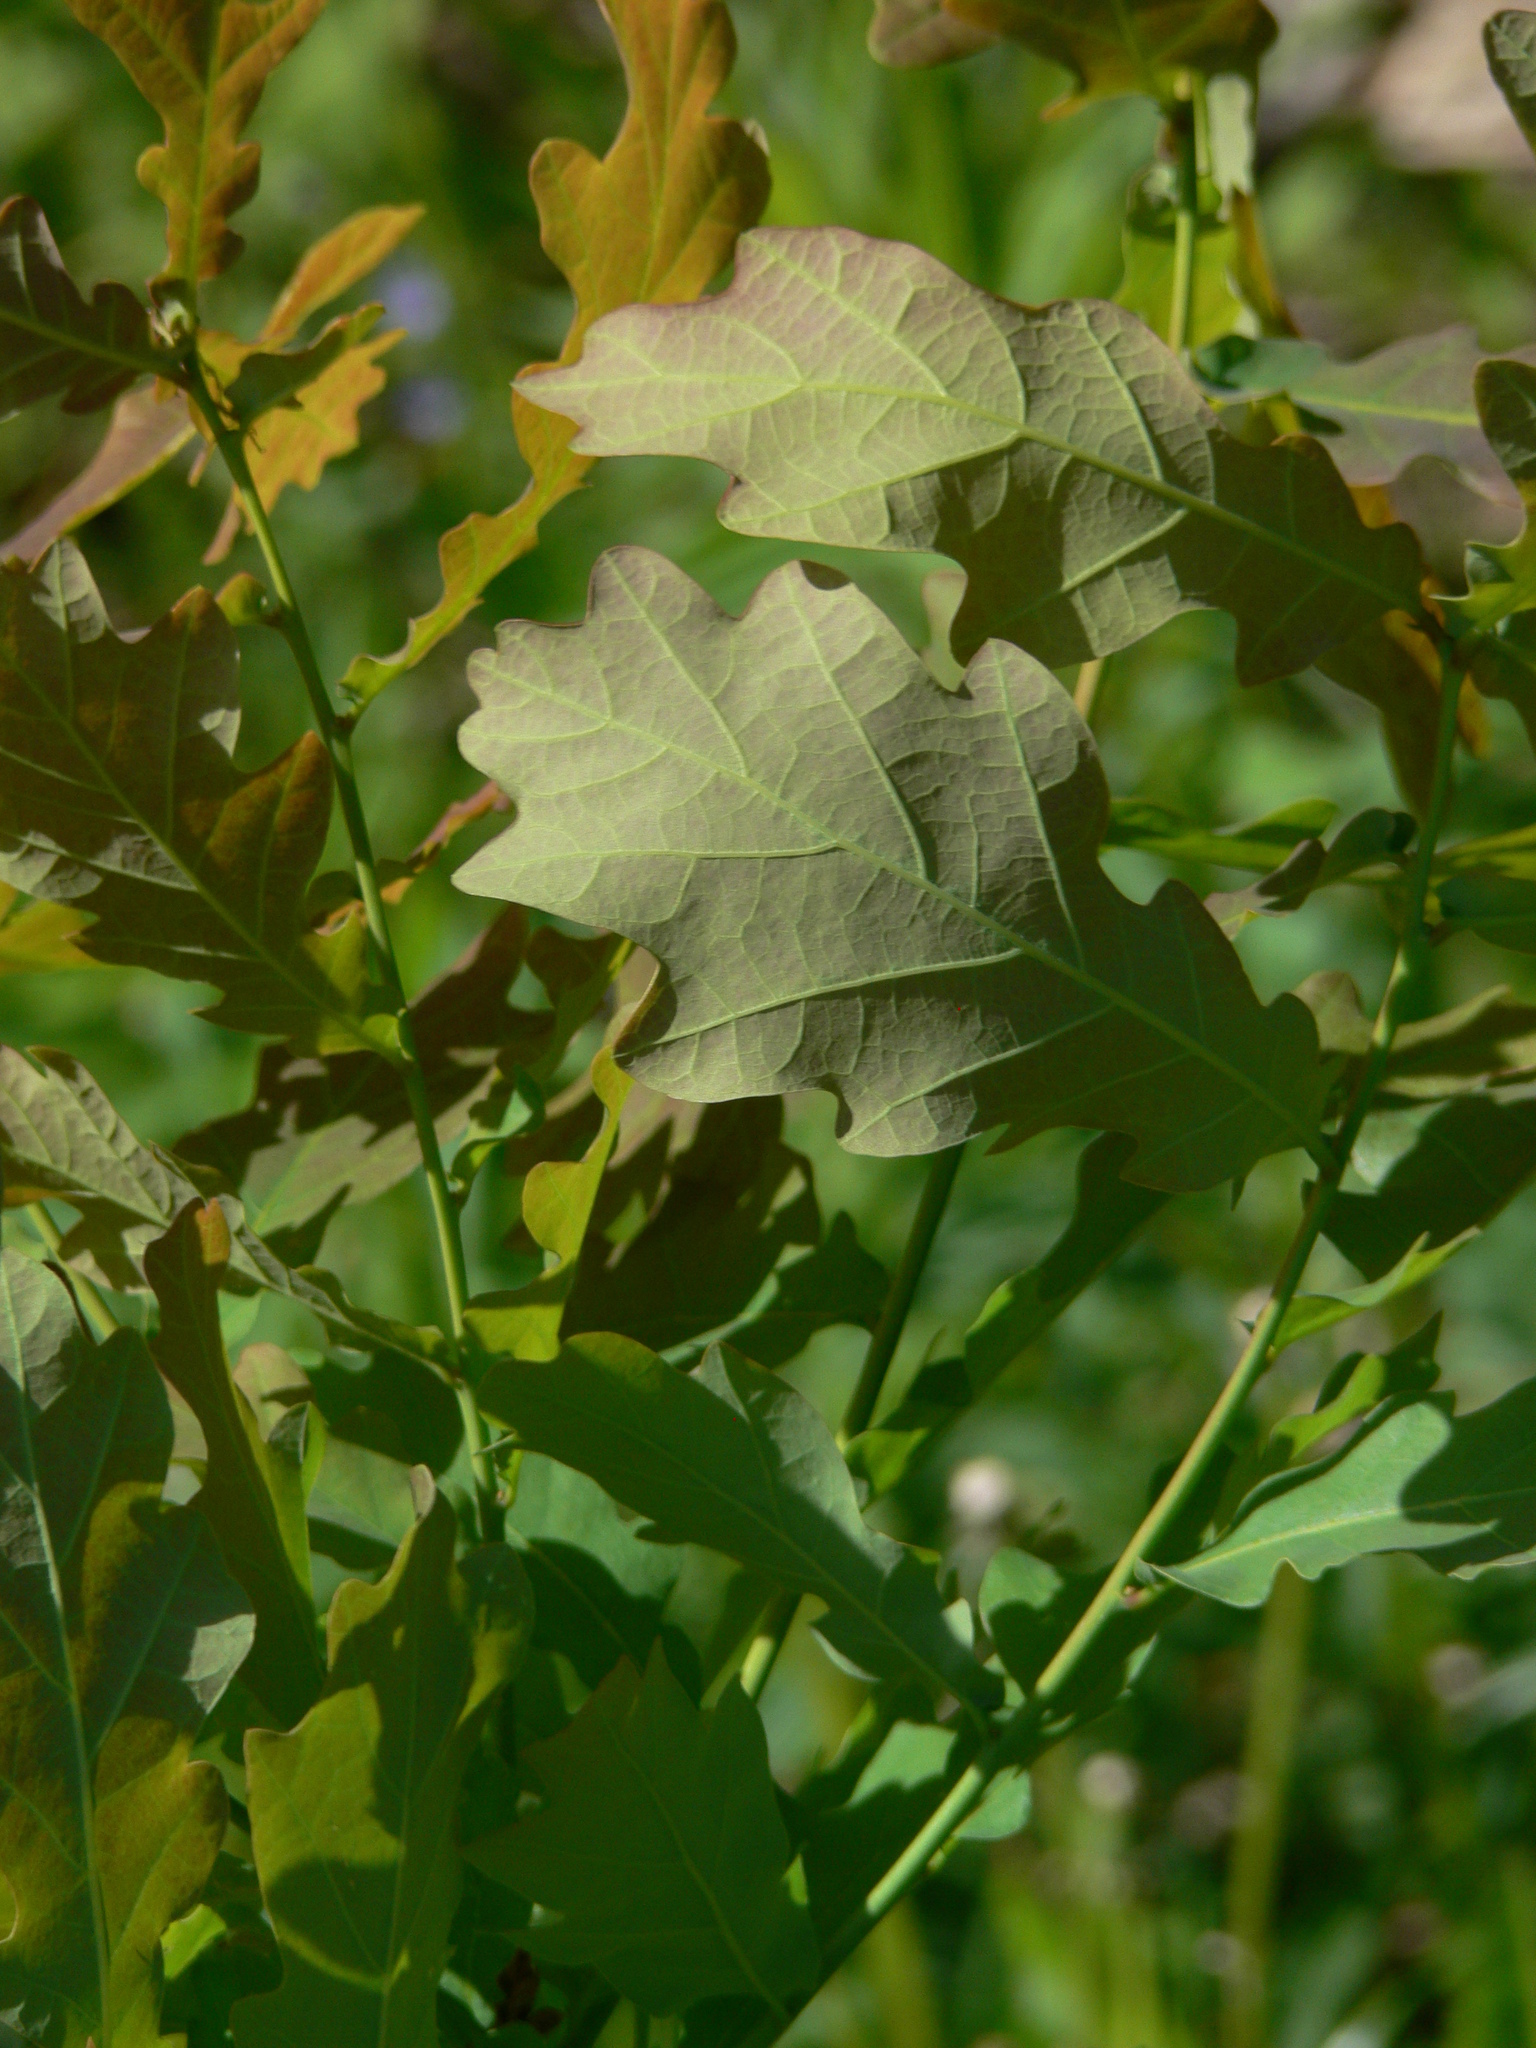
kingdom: Plantae
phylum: Tracheophyta
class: Magnoliopsida
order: Fagales
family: Fagaceae
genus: Quercus
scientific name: Quercus robur
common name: Pedunculate oak
